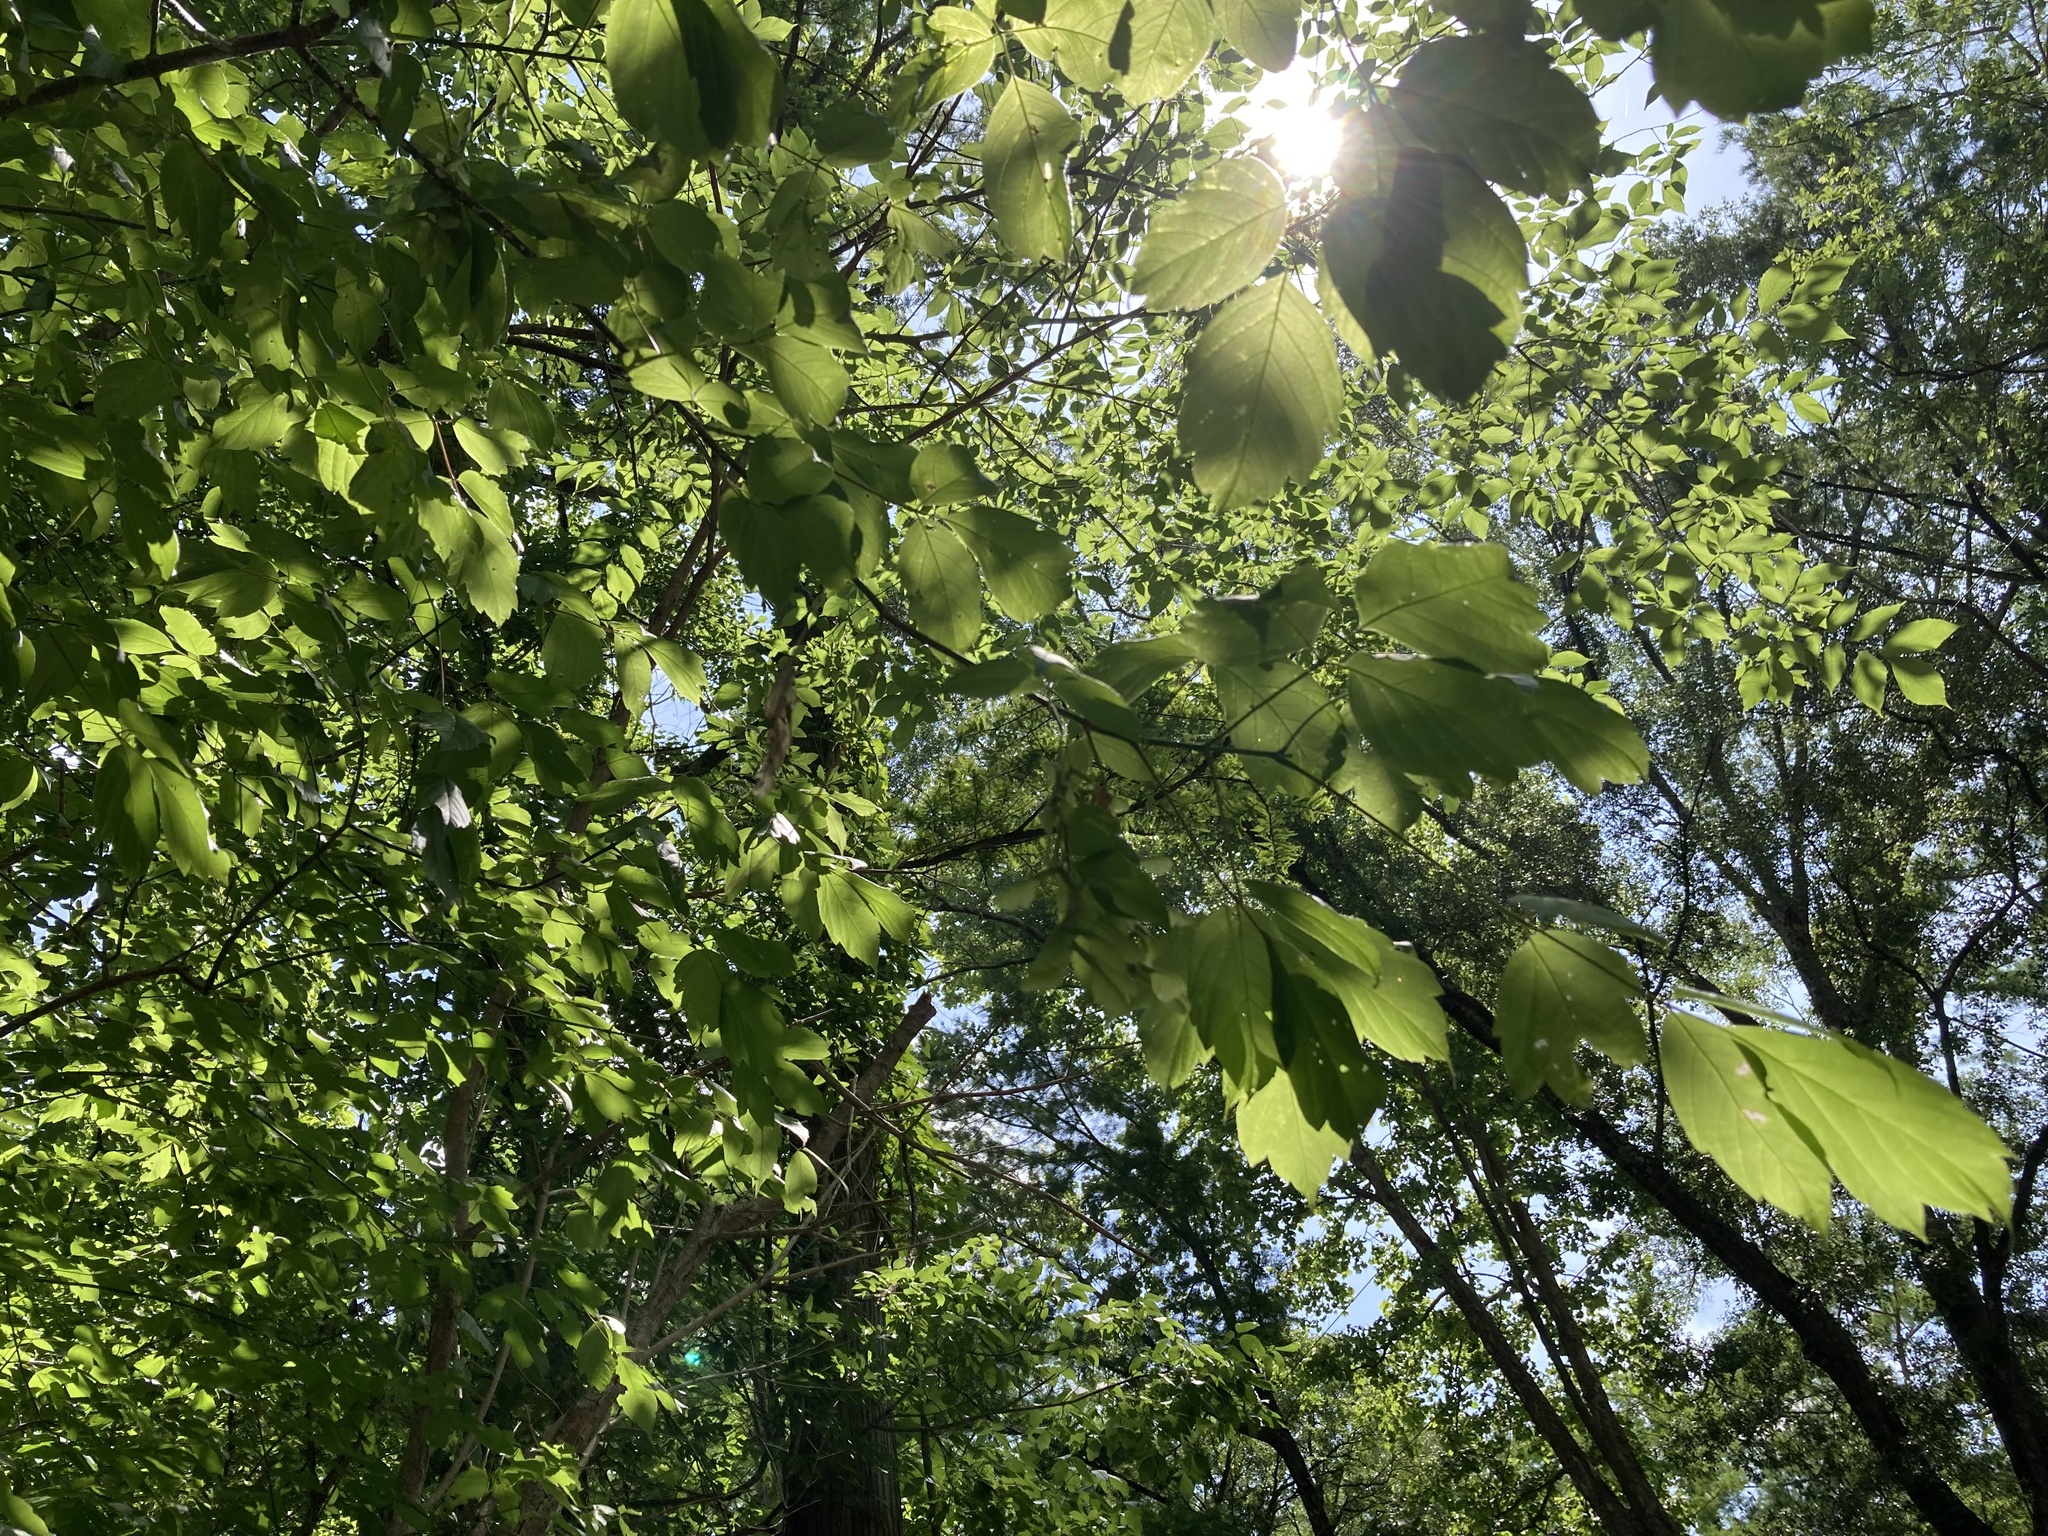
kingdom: Plantae
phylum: Tracheophyta
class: Magnoliopsida
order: Sapindales
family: Sapindaceae
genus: Acer
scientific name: Acer negundo
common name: Ashleaf maple
